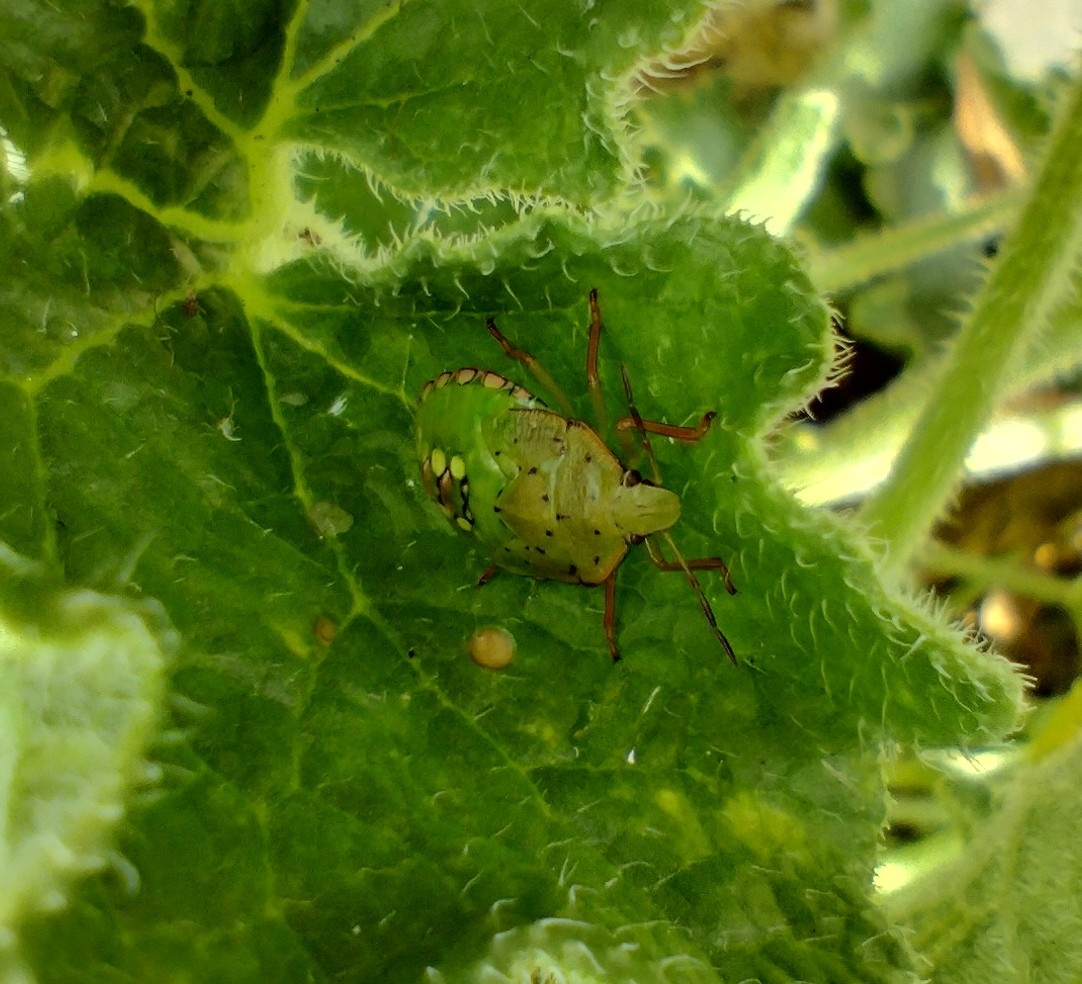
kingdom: Animalia
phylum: Arthropoda
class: Insecta
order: Hemiptera
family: Pentatomidae
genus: Nezara
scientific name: Nezara viridula
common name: Southern green stink bug
